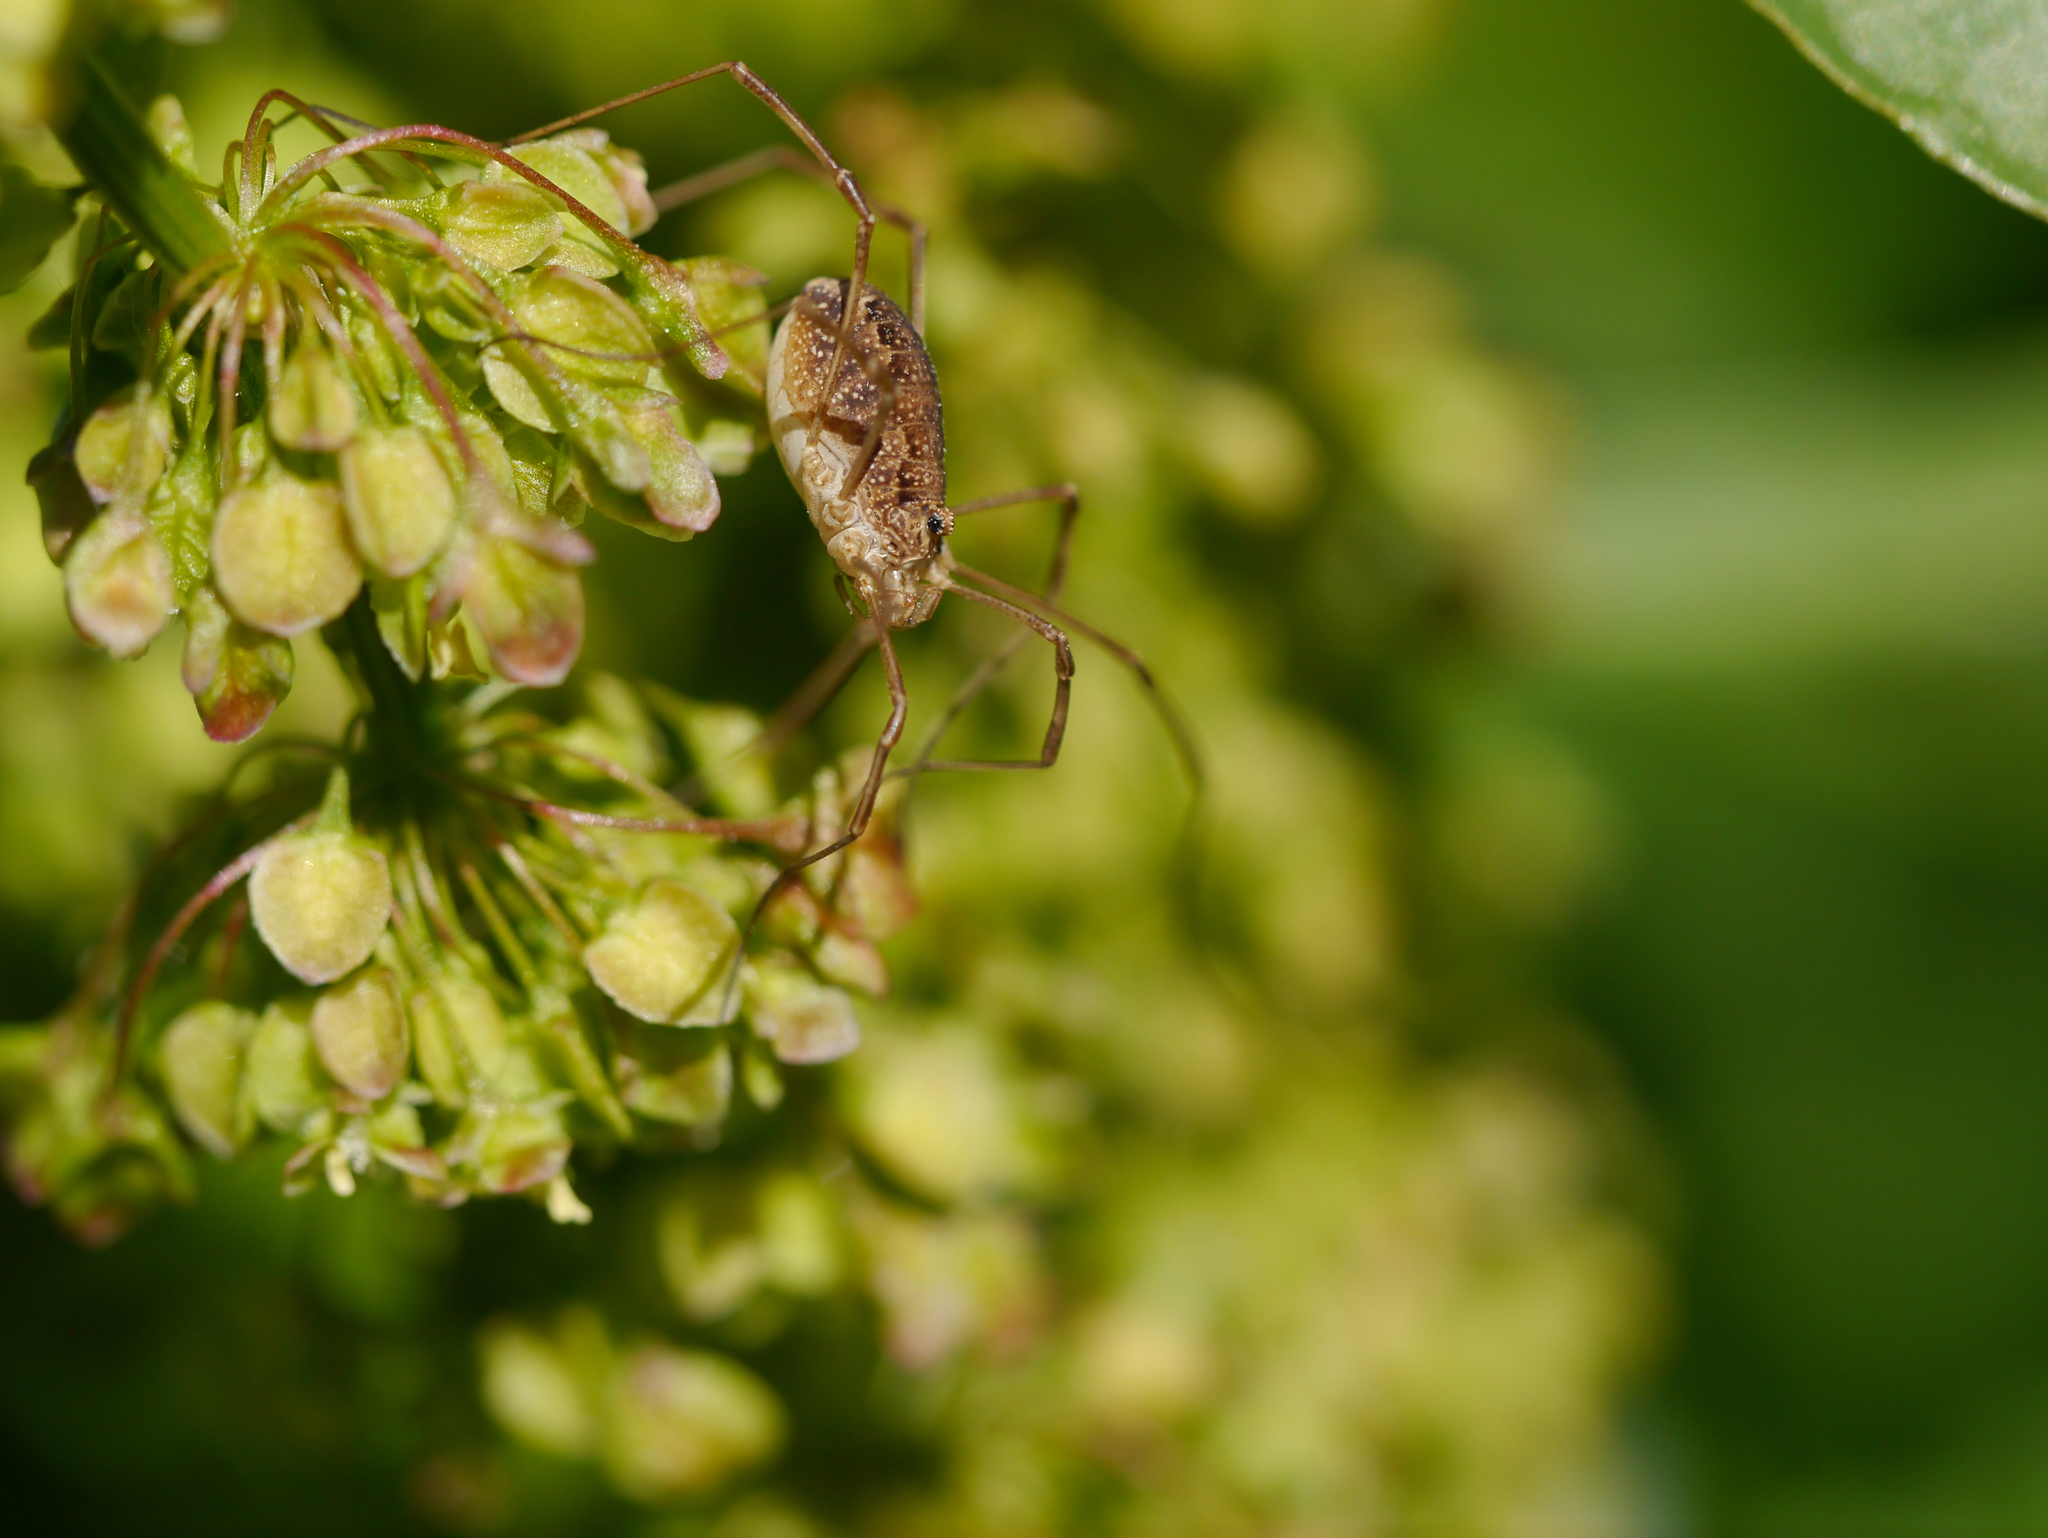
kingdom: Animalia
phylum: Arthropoda
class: Arachnida
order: Opiliones
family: Phalangiidae
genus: Rilaena
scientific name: Rilaena triangularis
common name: Spring harvestman
